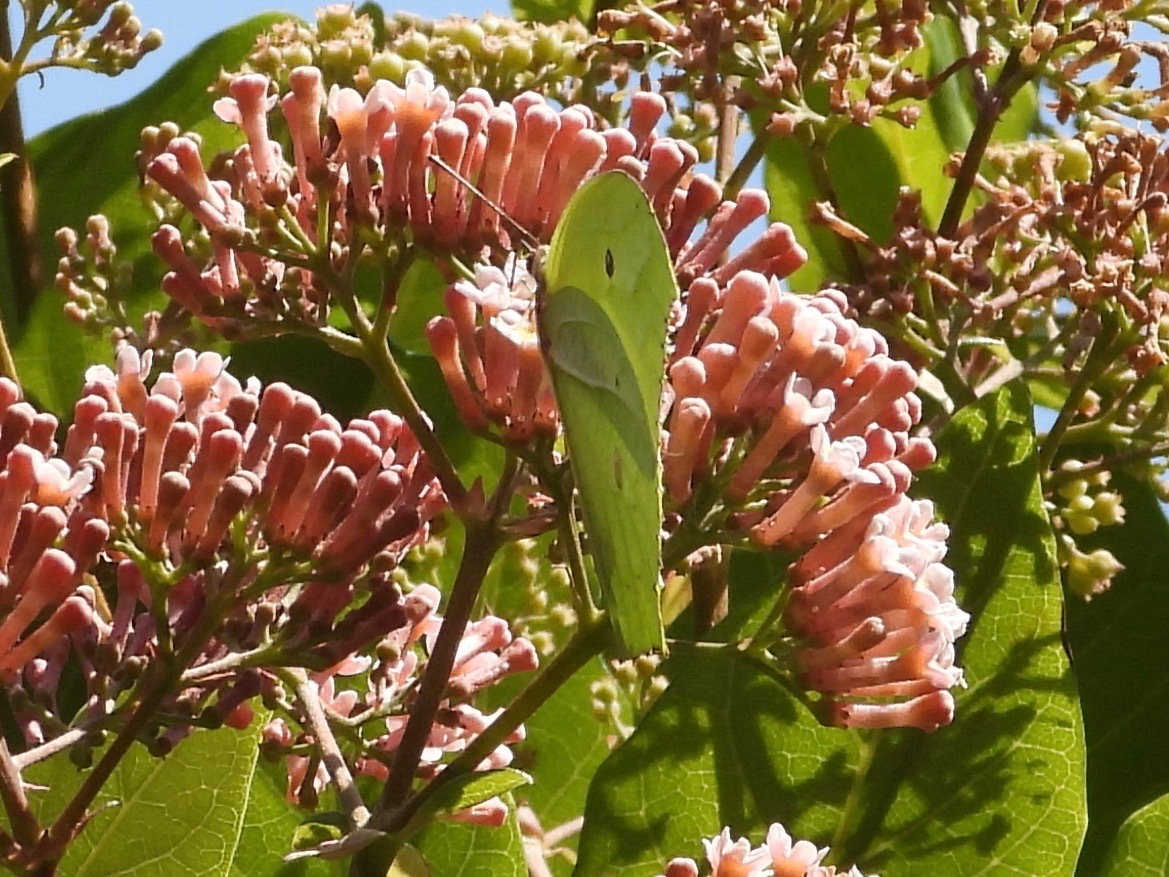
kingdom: Animalia
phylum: Arthropoda
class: Insecta
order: Lepidoptera
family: Pieridae
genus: Anteos
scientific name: Anteos maerula
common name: Angled sulphur
